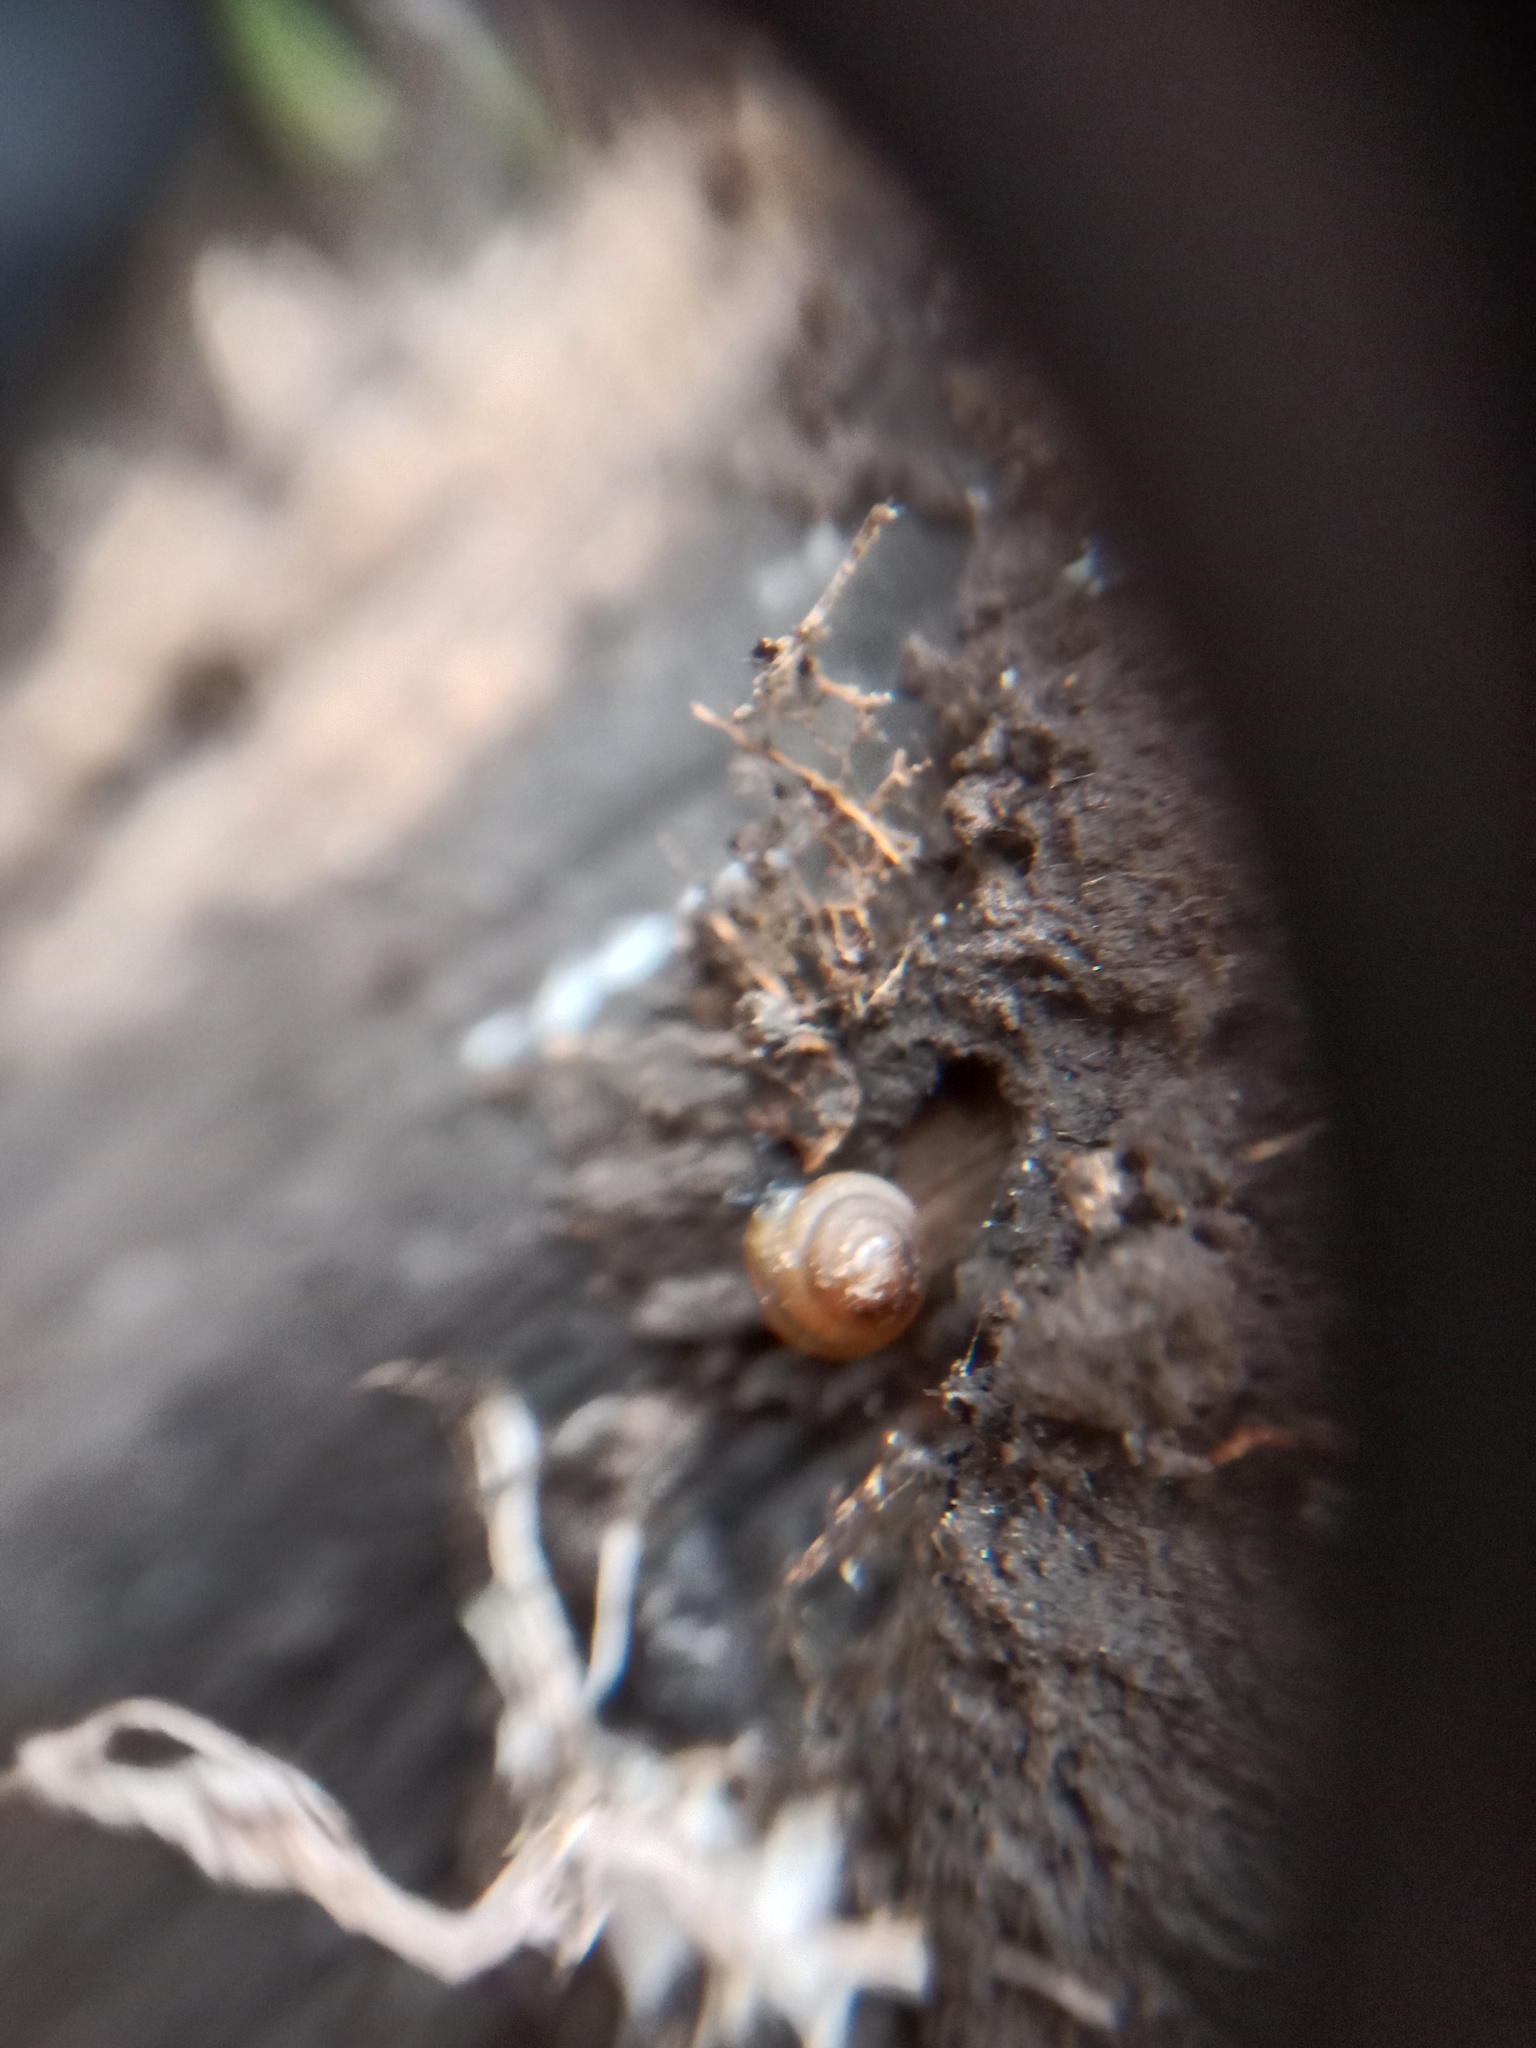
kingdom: Animalia
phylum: Mollusca
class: Gastropoda
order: Stylommatophora
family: Euconulidae
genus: Euconulus
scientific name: Euconulus fulvus
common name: Tawny glass snail
